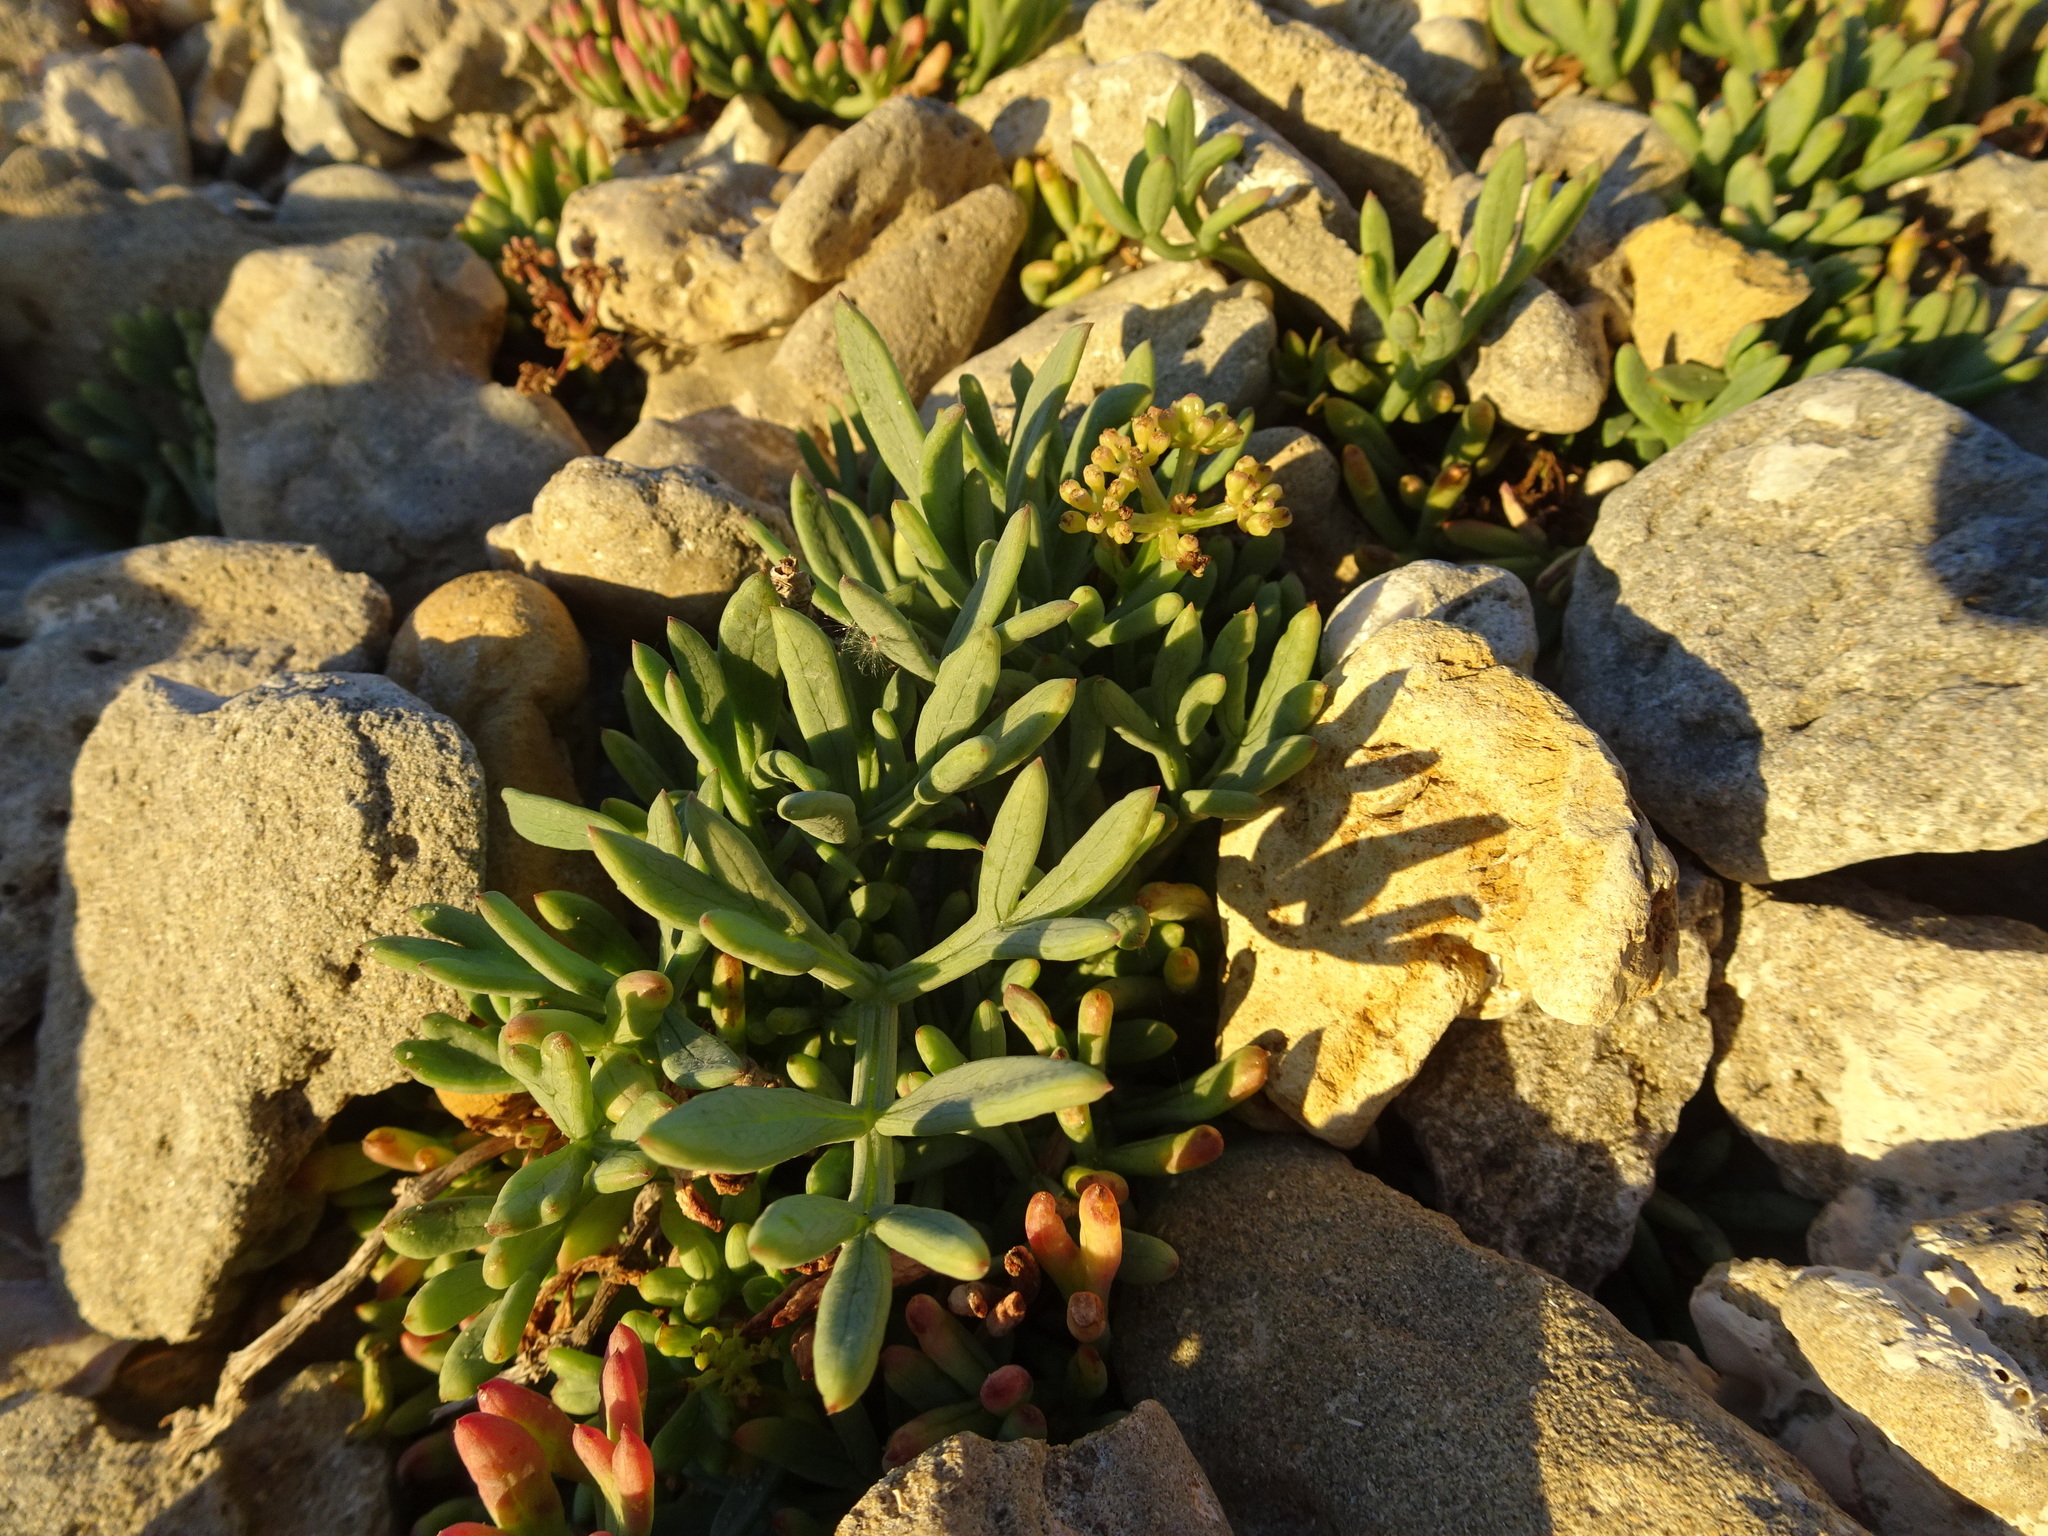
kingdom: Plantae
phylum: Tracheophyta
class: Magnoliopsida
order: Apiales
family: Apiaceae
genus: Crithmum
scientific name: Crithmum maritimum
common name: Rock samphire
